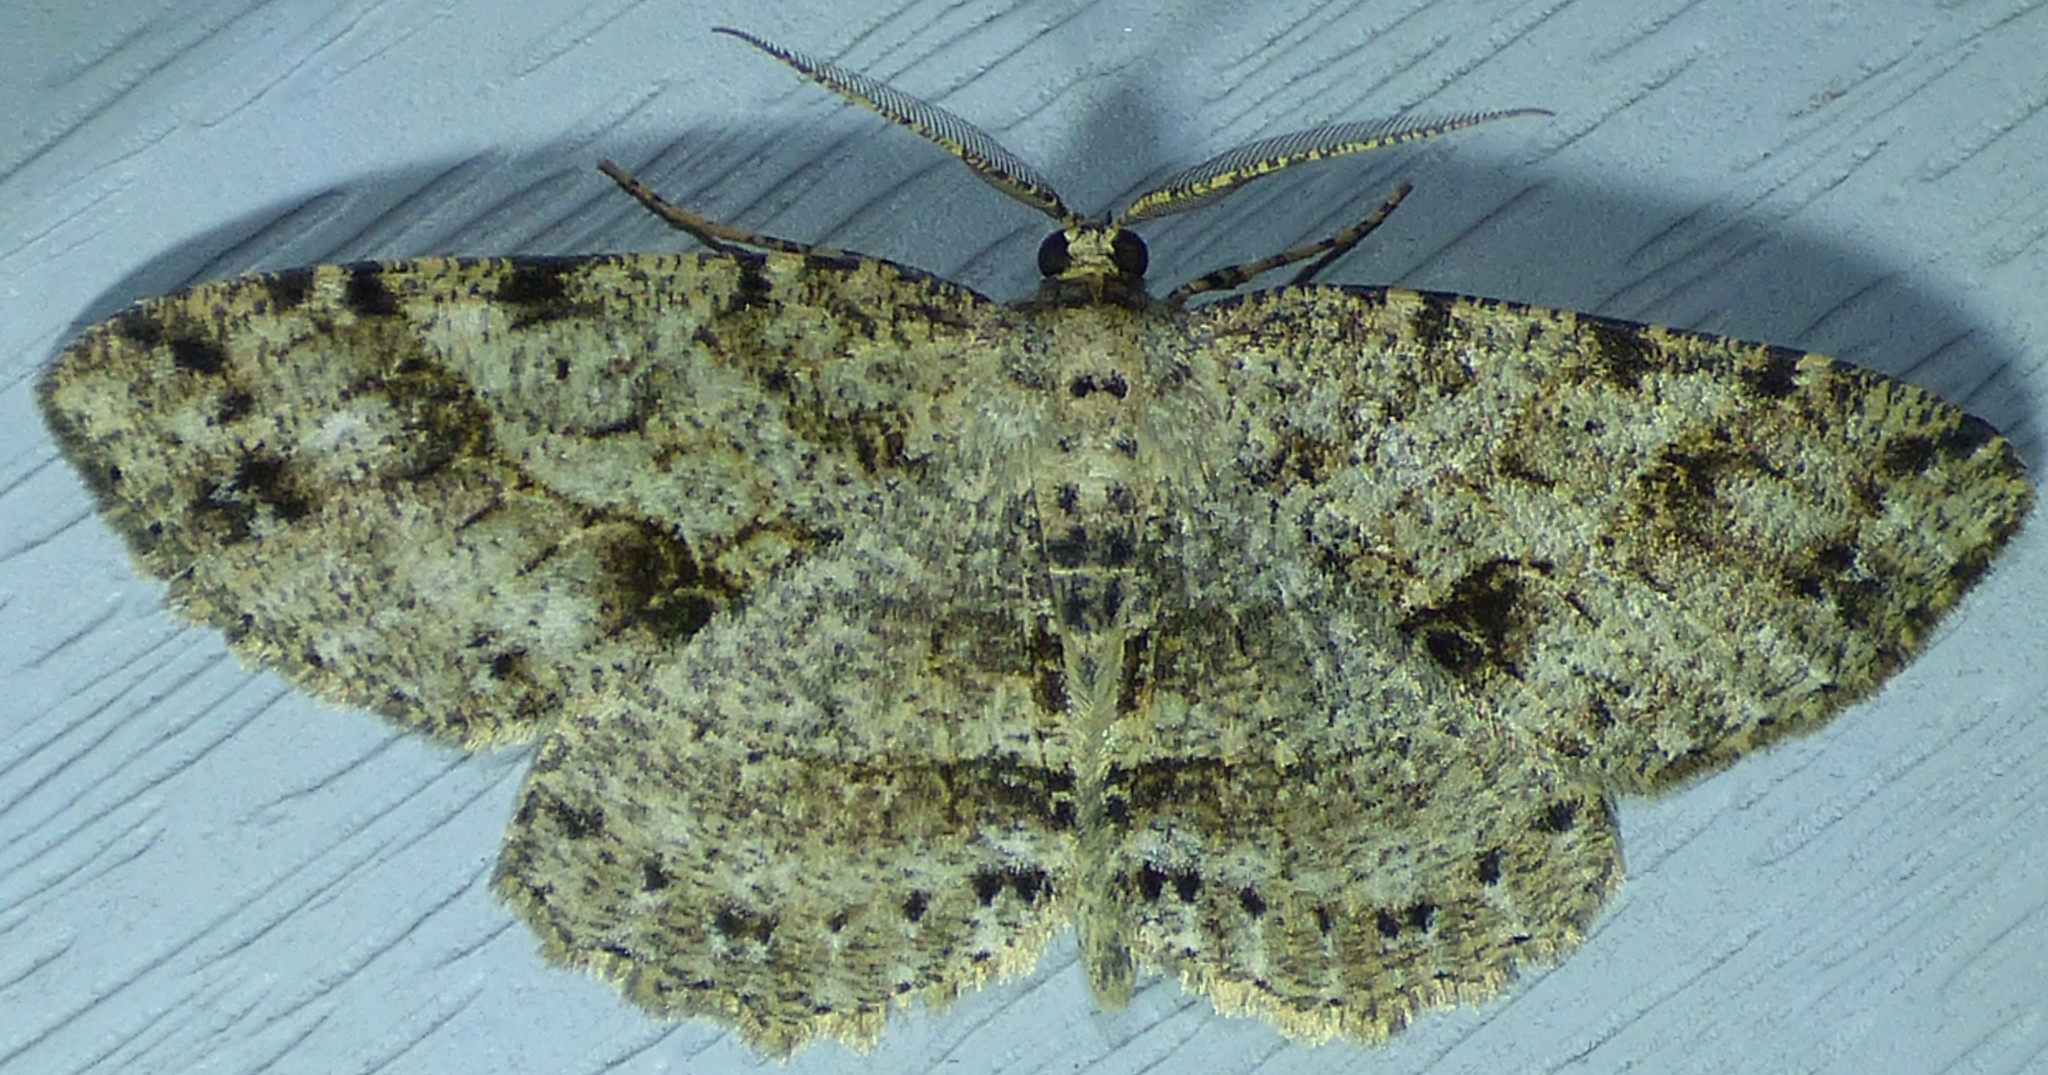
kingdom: Animalia
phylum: Arthropoda
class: Insecta
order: Lepidoptera
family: Geometridae
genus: Melanolophia
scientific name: Melanolophia canadaria
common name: Canadian melanolophia
